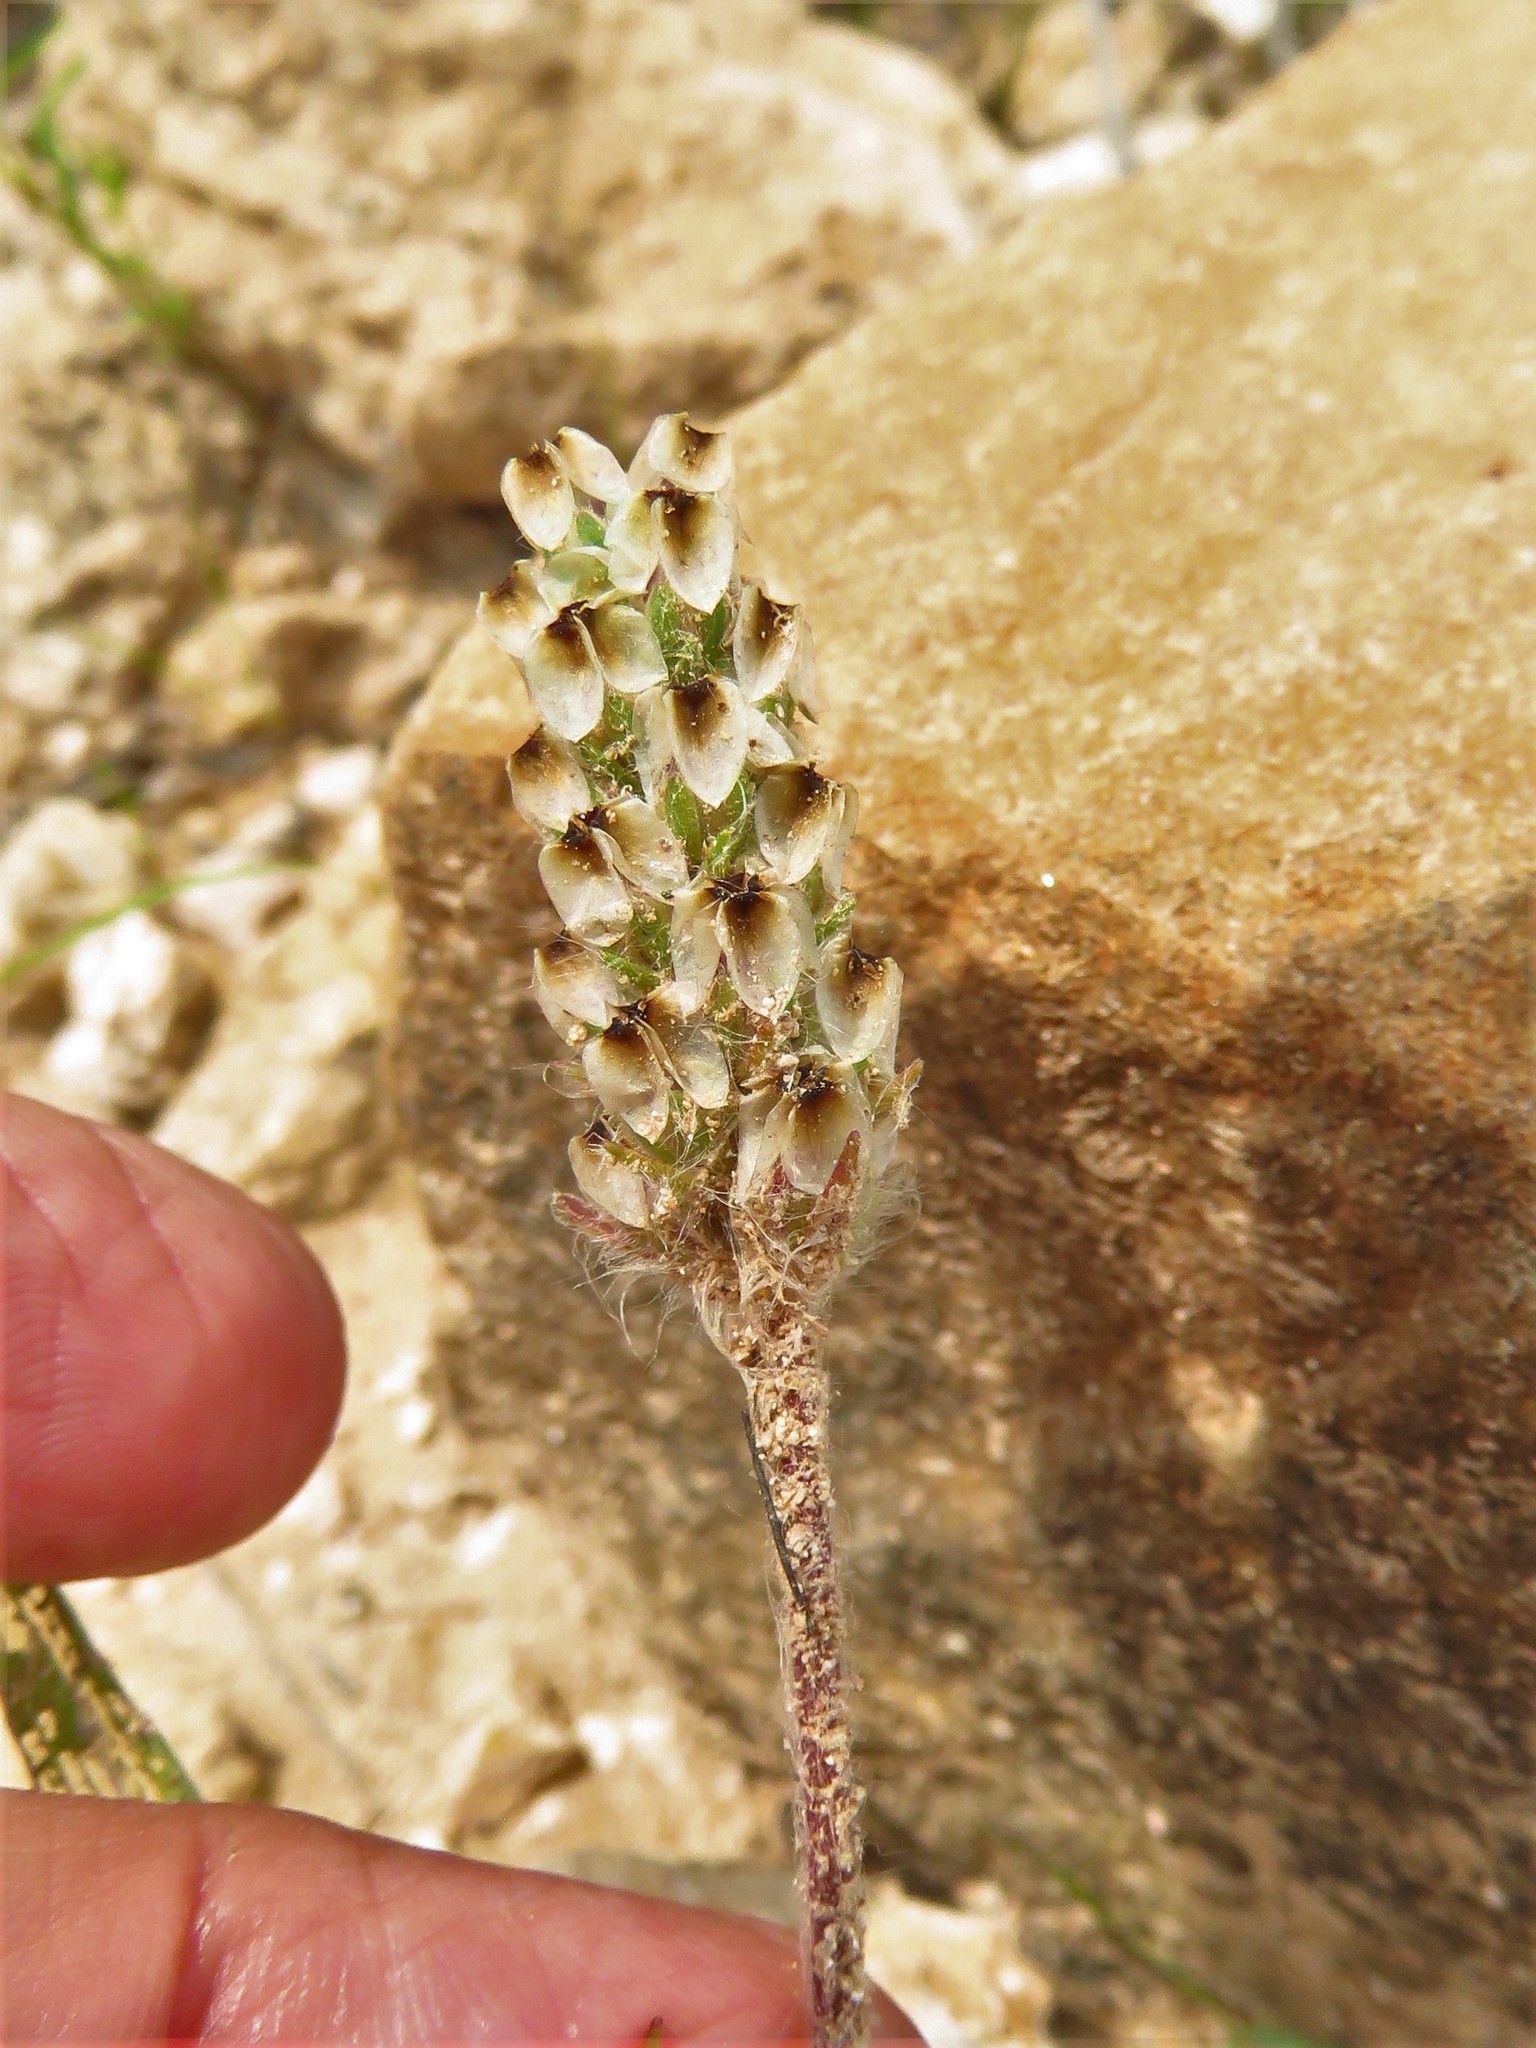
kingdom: Plantae
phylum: Tracheophyta
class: Magnoliopsida
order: Lamiales
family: Plantaginaceae
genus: Plantago
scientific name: Plantago helleri
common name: Heller's plantain
